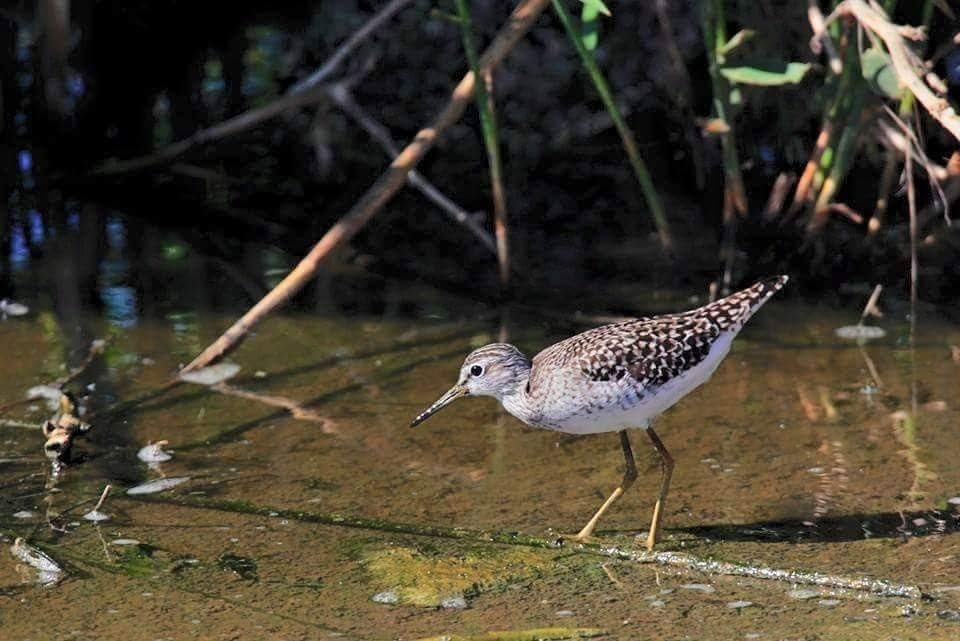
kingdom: Animalia
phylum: Chordata
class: Aves
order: Charadriiformes
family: Scolopacidae
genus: Tringa
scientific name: Tringa glareola
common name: Wood sandpiper
